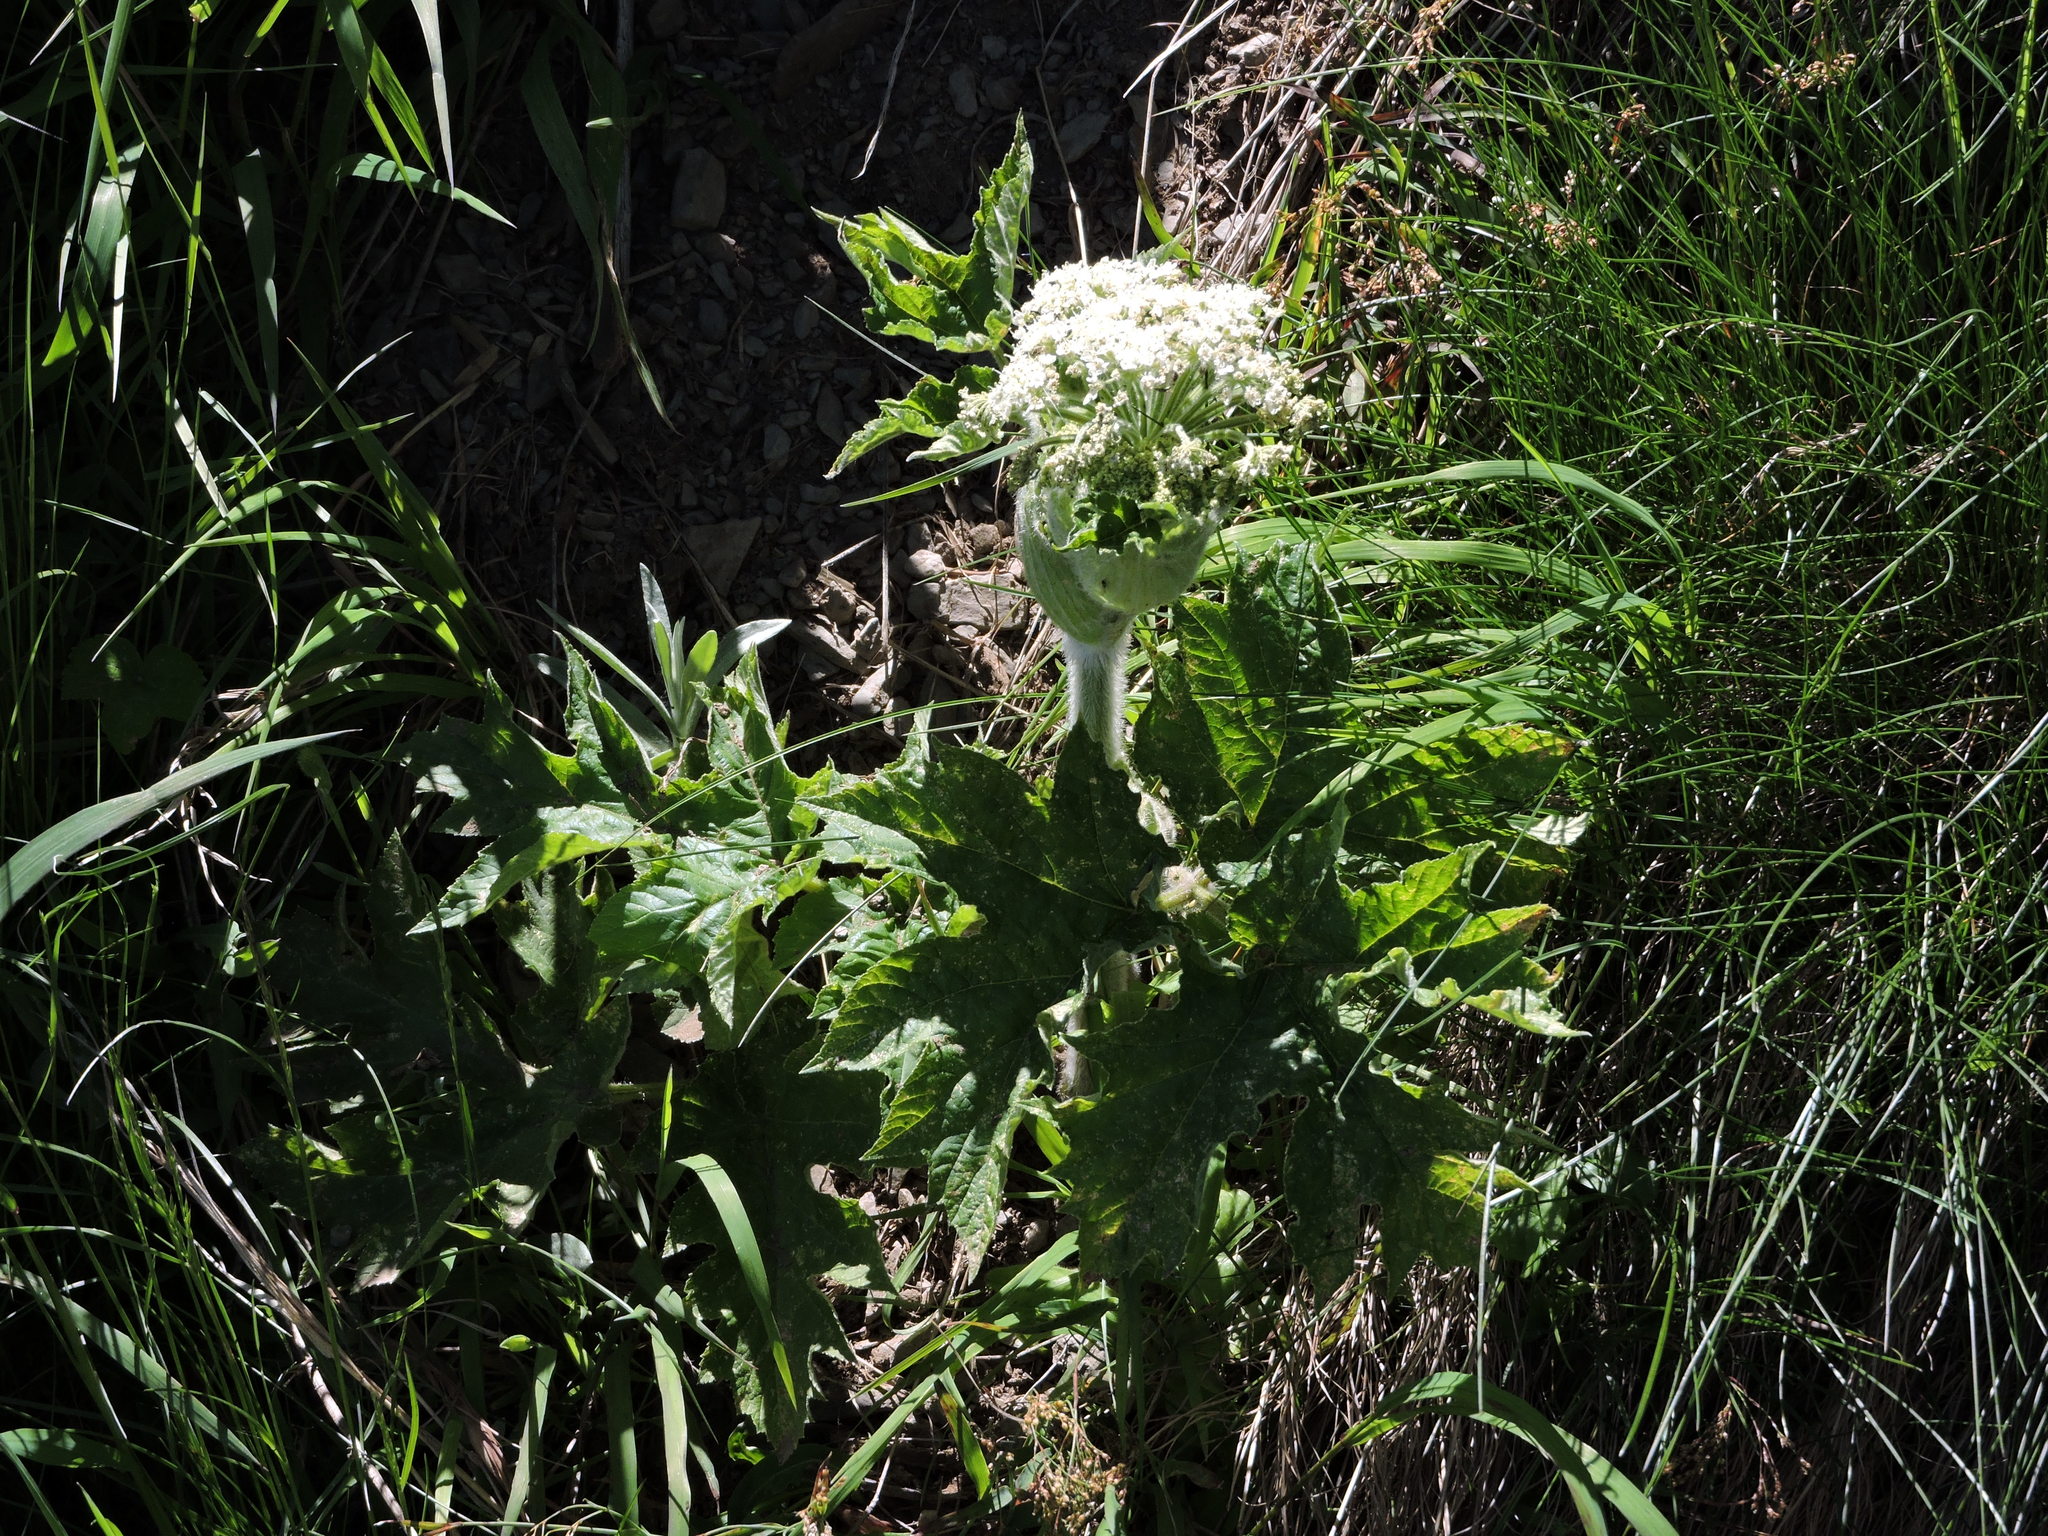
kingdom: Plantae
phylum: Tracheophyta
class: Magnoliopsida
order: Apiales
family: Apiaceae
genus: Heracleum
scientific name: Heracleum maximum
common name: American cow parsnip
